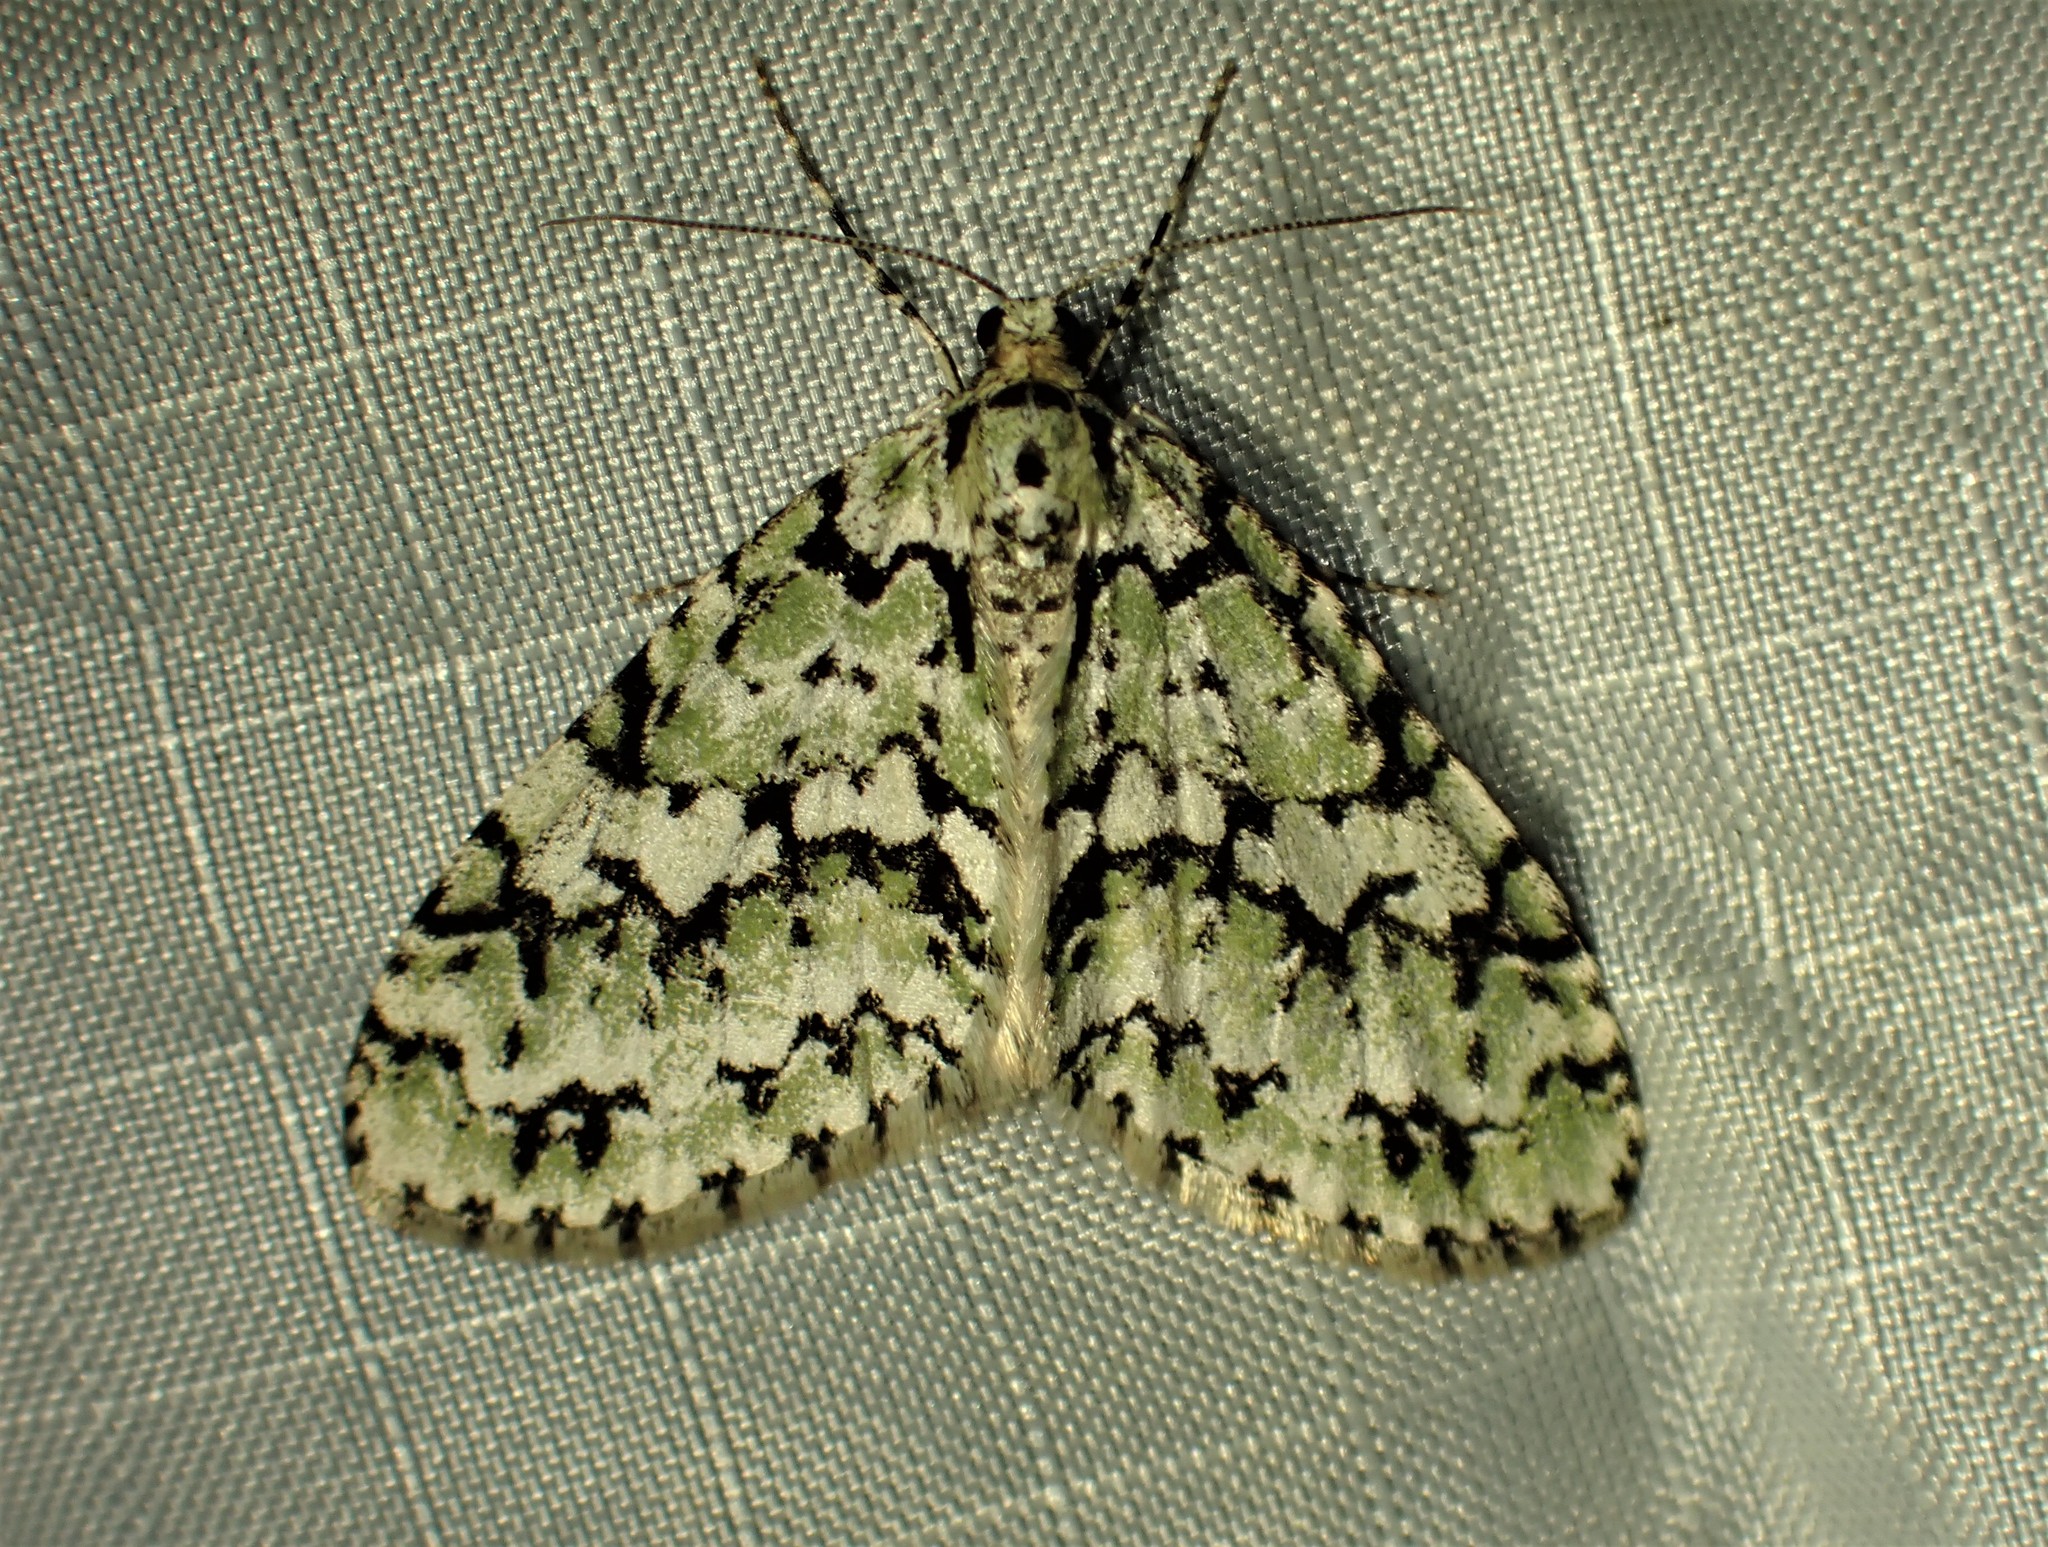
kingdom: Animalia
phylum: Arthropoda
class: Insecta
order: Lepidoptera
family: Geometridae
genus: Cladara
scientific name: Cladara atroliturata
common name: Scribbler
